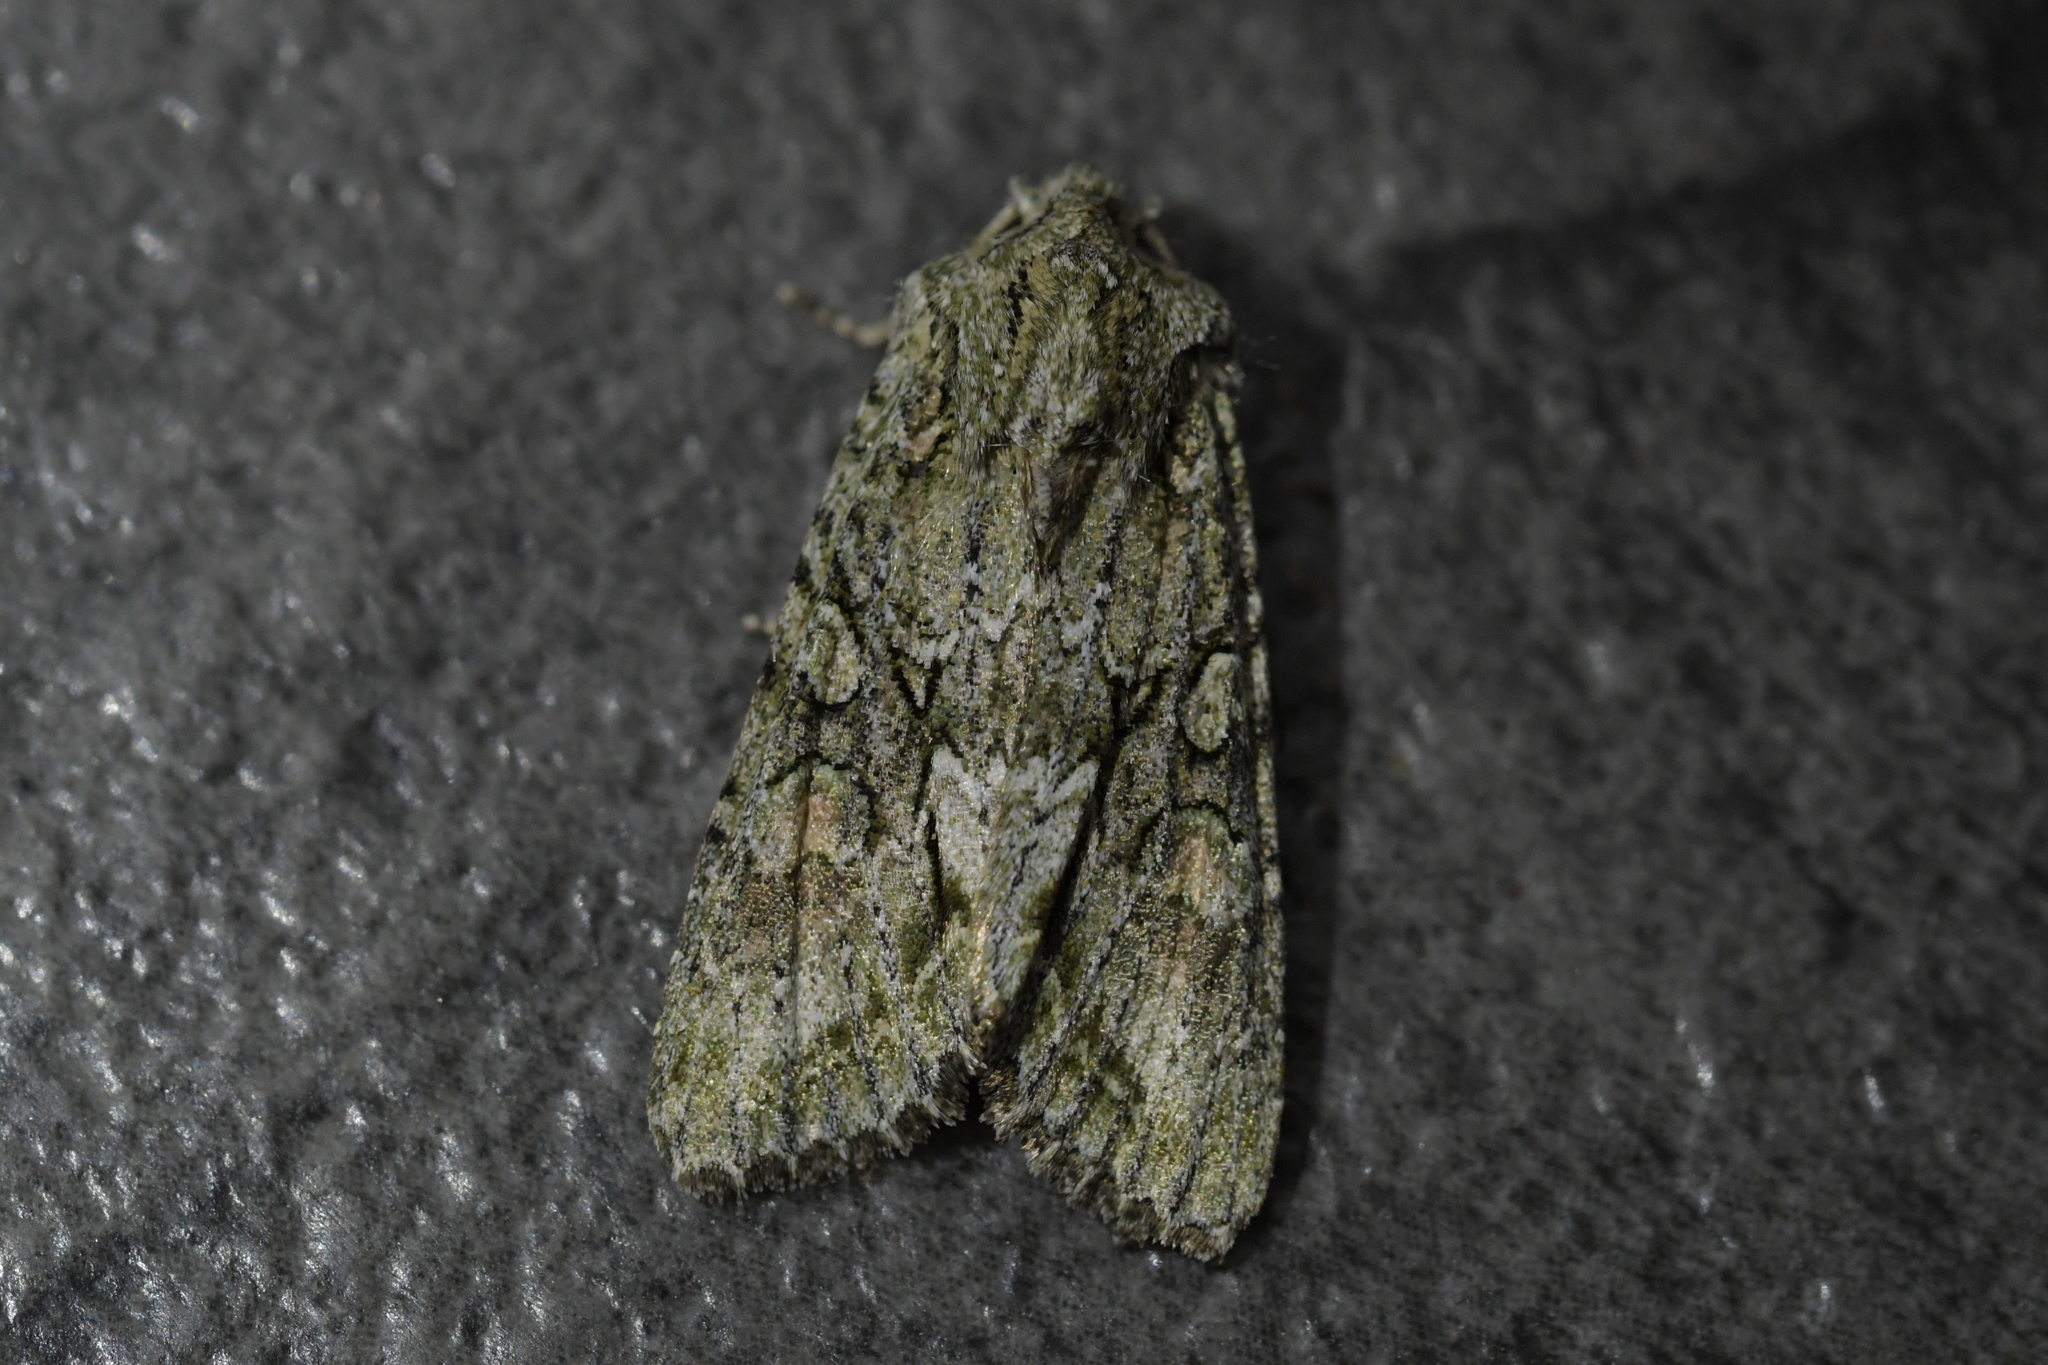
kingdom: Animalia
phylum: Arthropoda
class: Insecta
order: Lepidoptera
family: Noctuidae
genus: Ichneutica
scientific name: Ichneutica mutans
